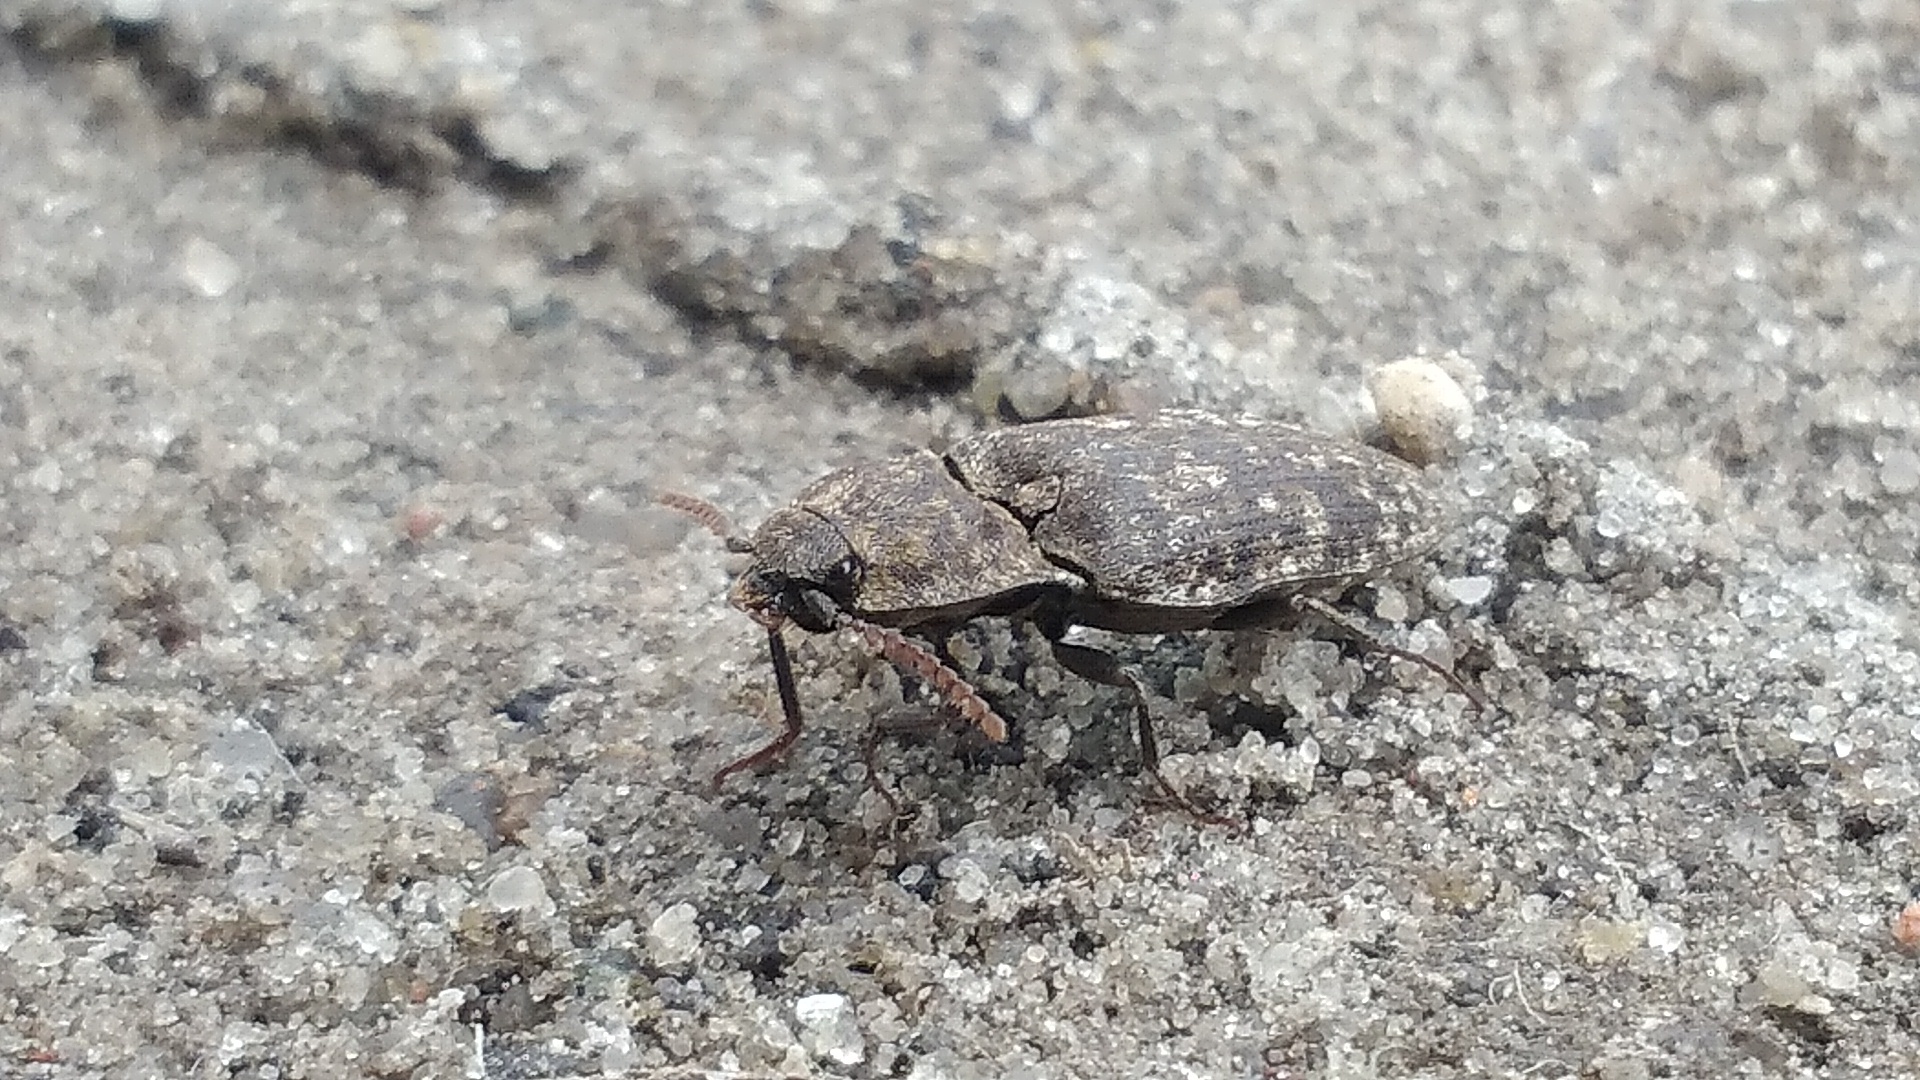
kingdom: Animalia
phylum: Arthropoda
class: Insecta
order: Coleoptera
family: Elateridae
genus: Agrypnus
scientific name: Agrypnus murinus
